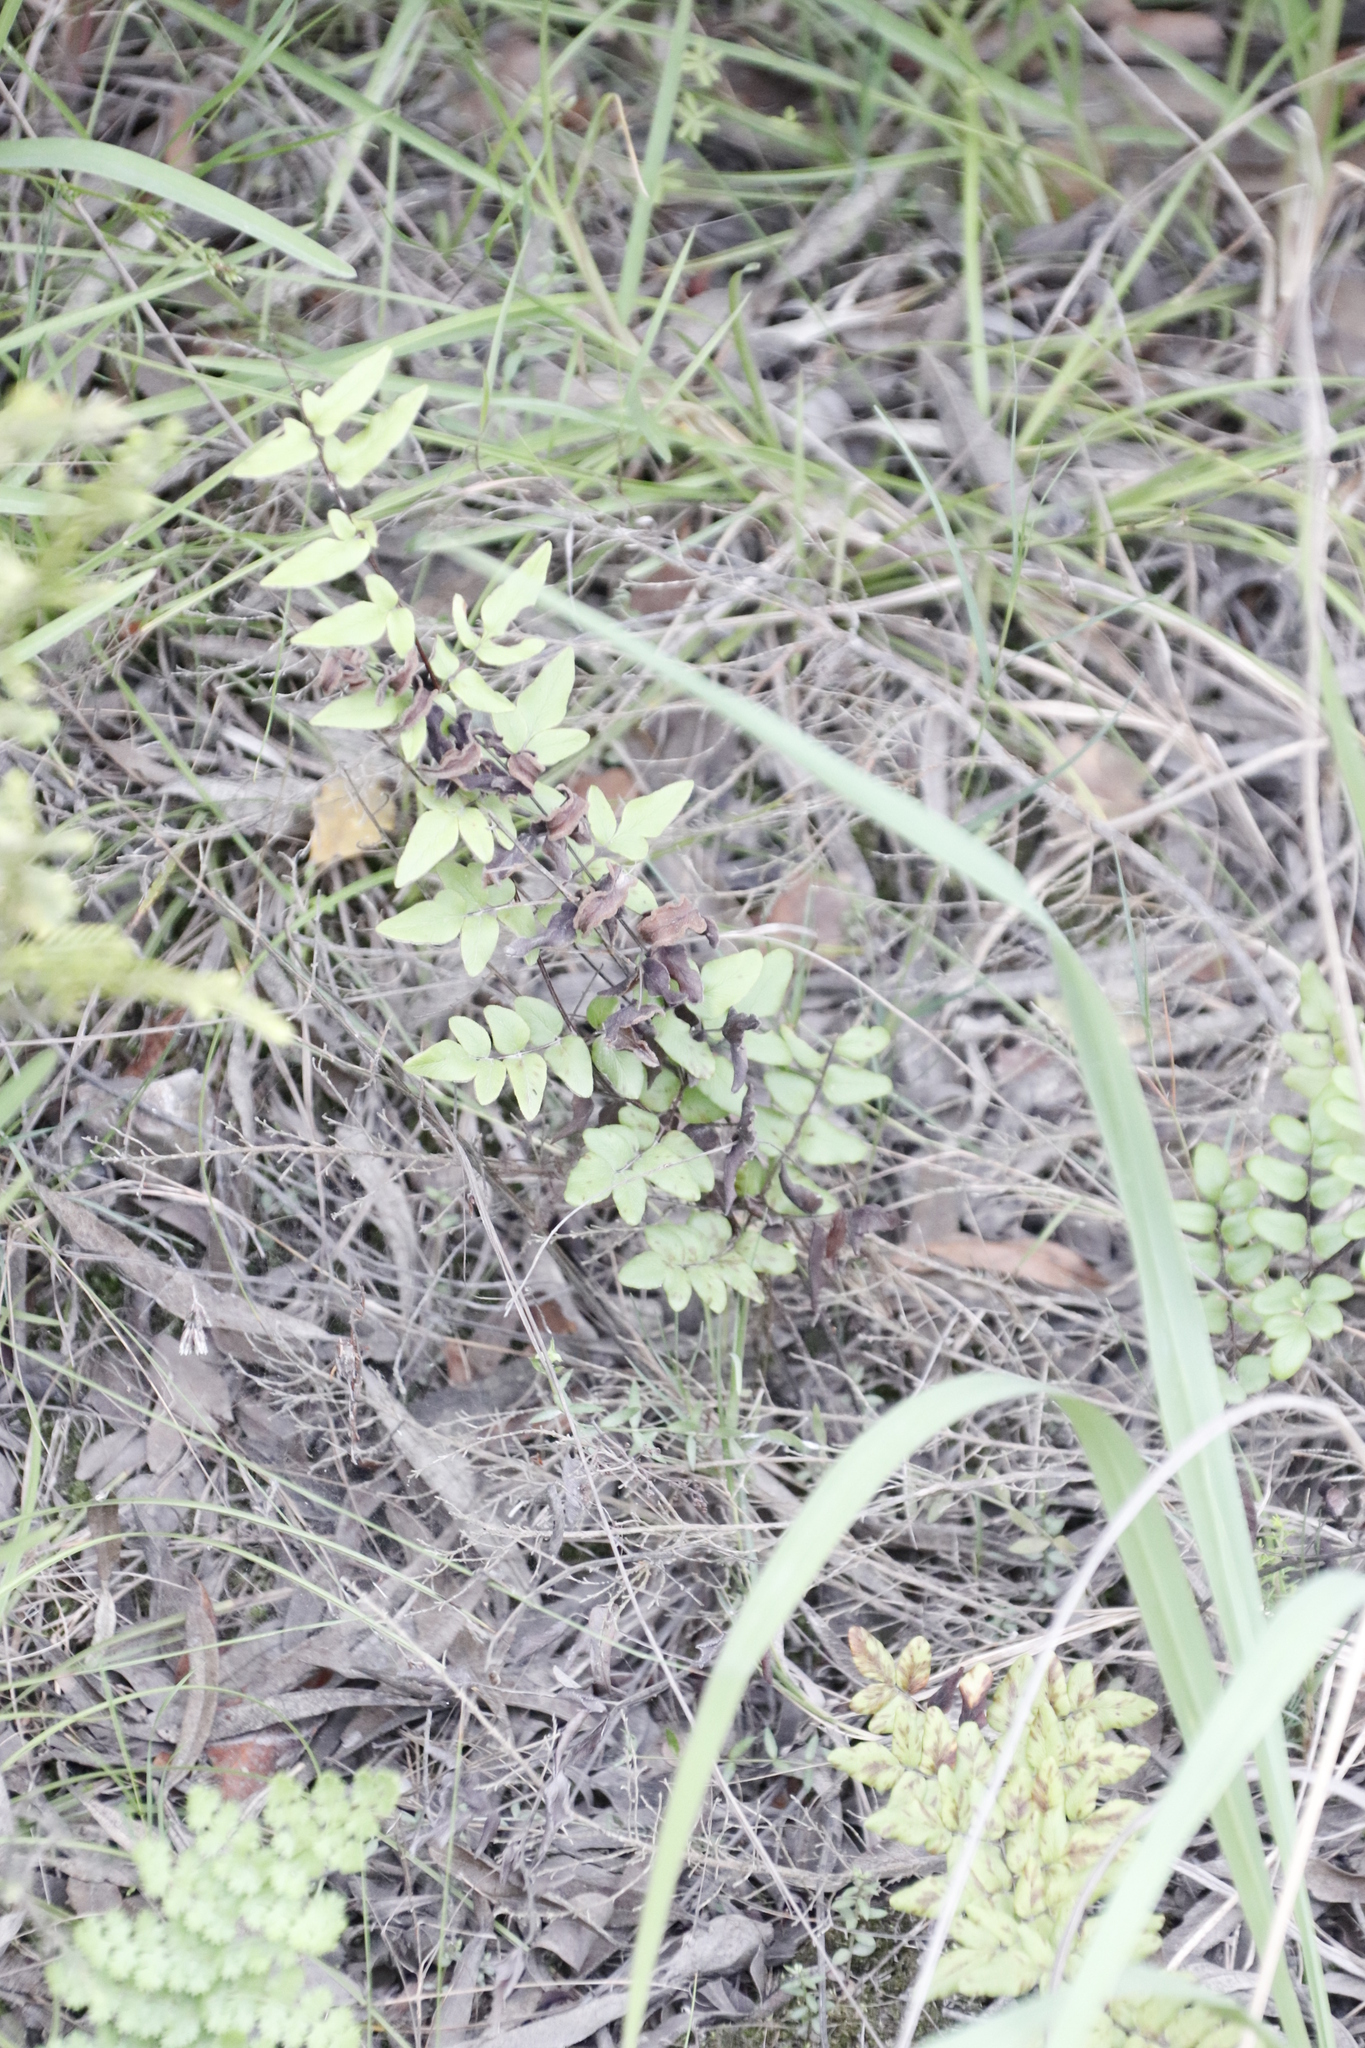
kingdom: Plantae
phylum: Tracheophyta
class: Polypodiopsida
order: Polypodiales
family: Pteridaceae
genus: Cheilanthes
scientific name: Cheilanthes viridis
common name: Green cliffbrake
